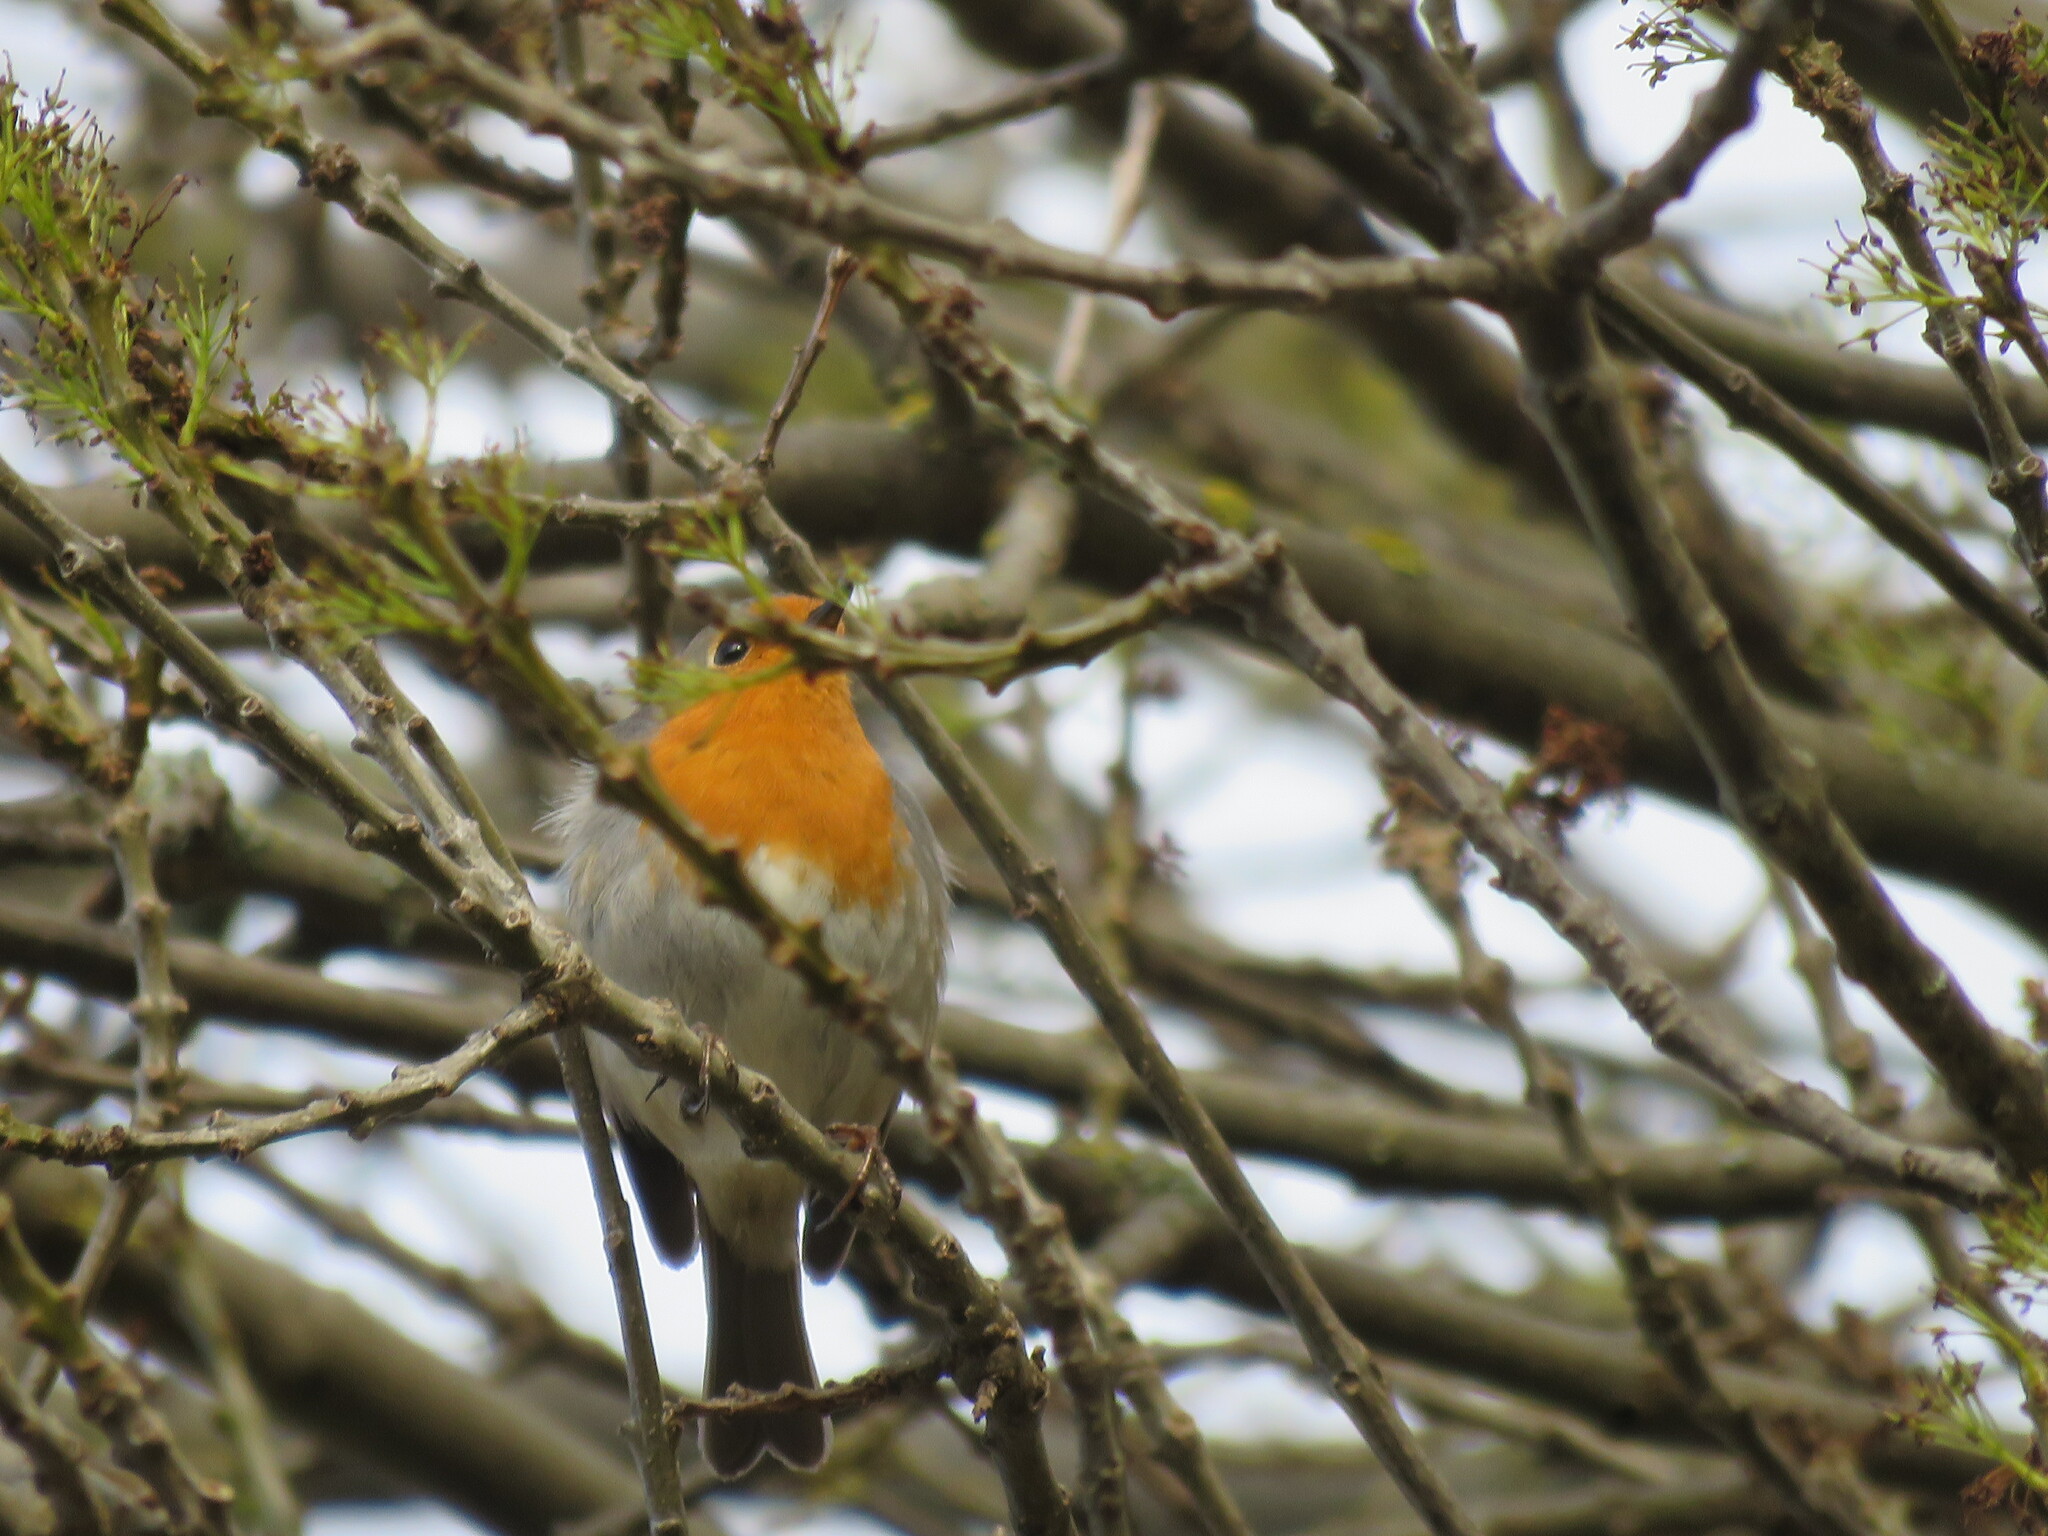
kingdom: Animalia
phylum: Chordata
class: Aves
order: Passeriformes
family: Muscicapidae
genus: Erithacus
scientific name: Erithacus rubecula
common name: European robin
